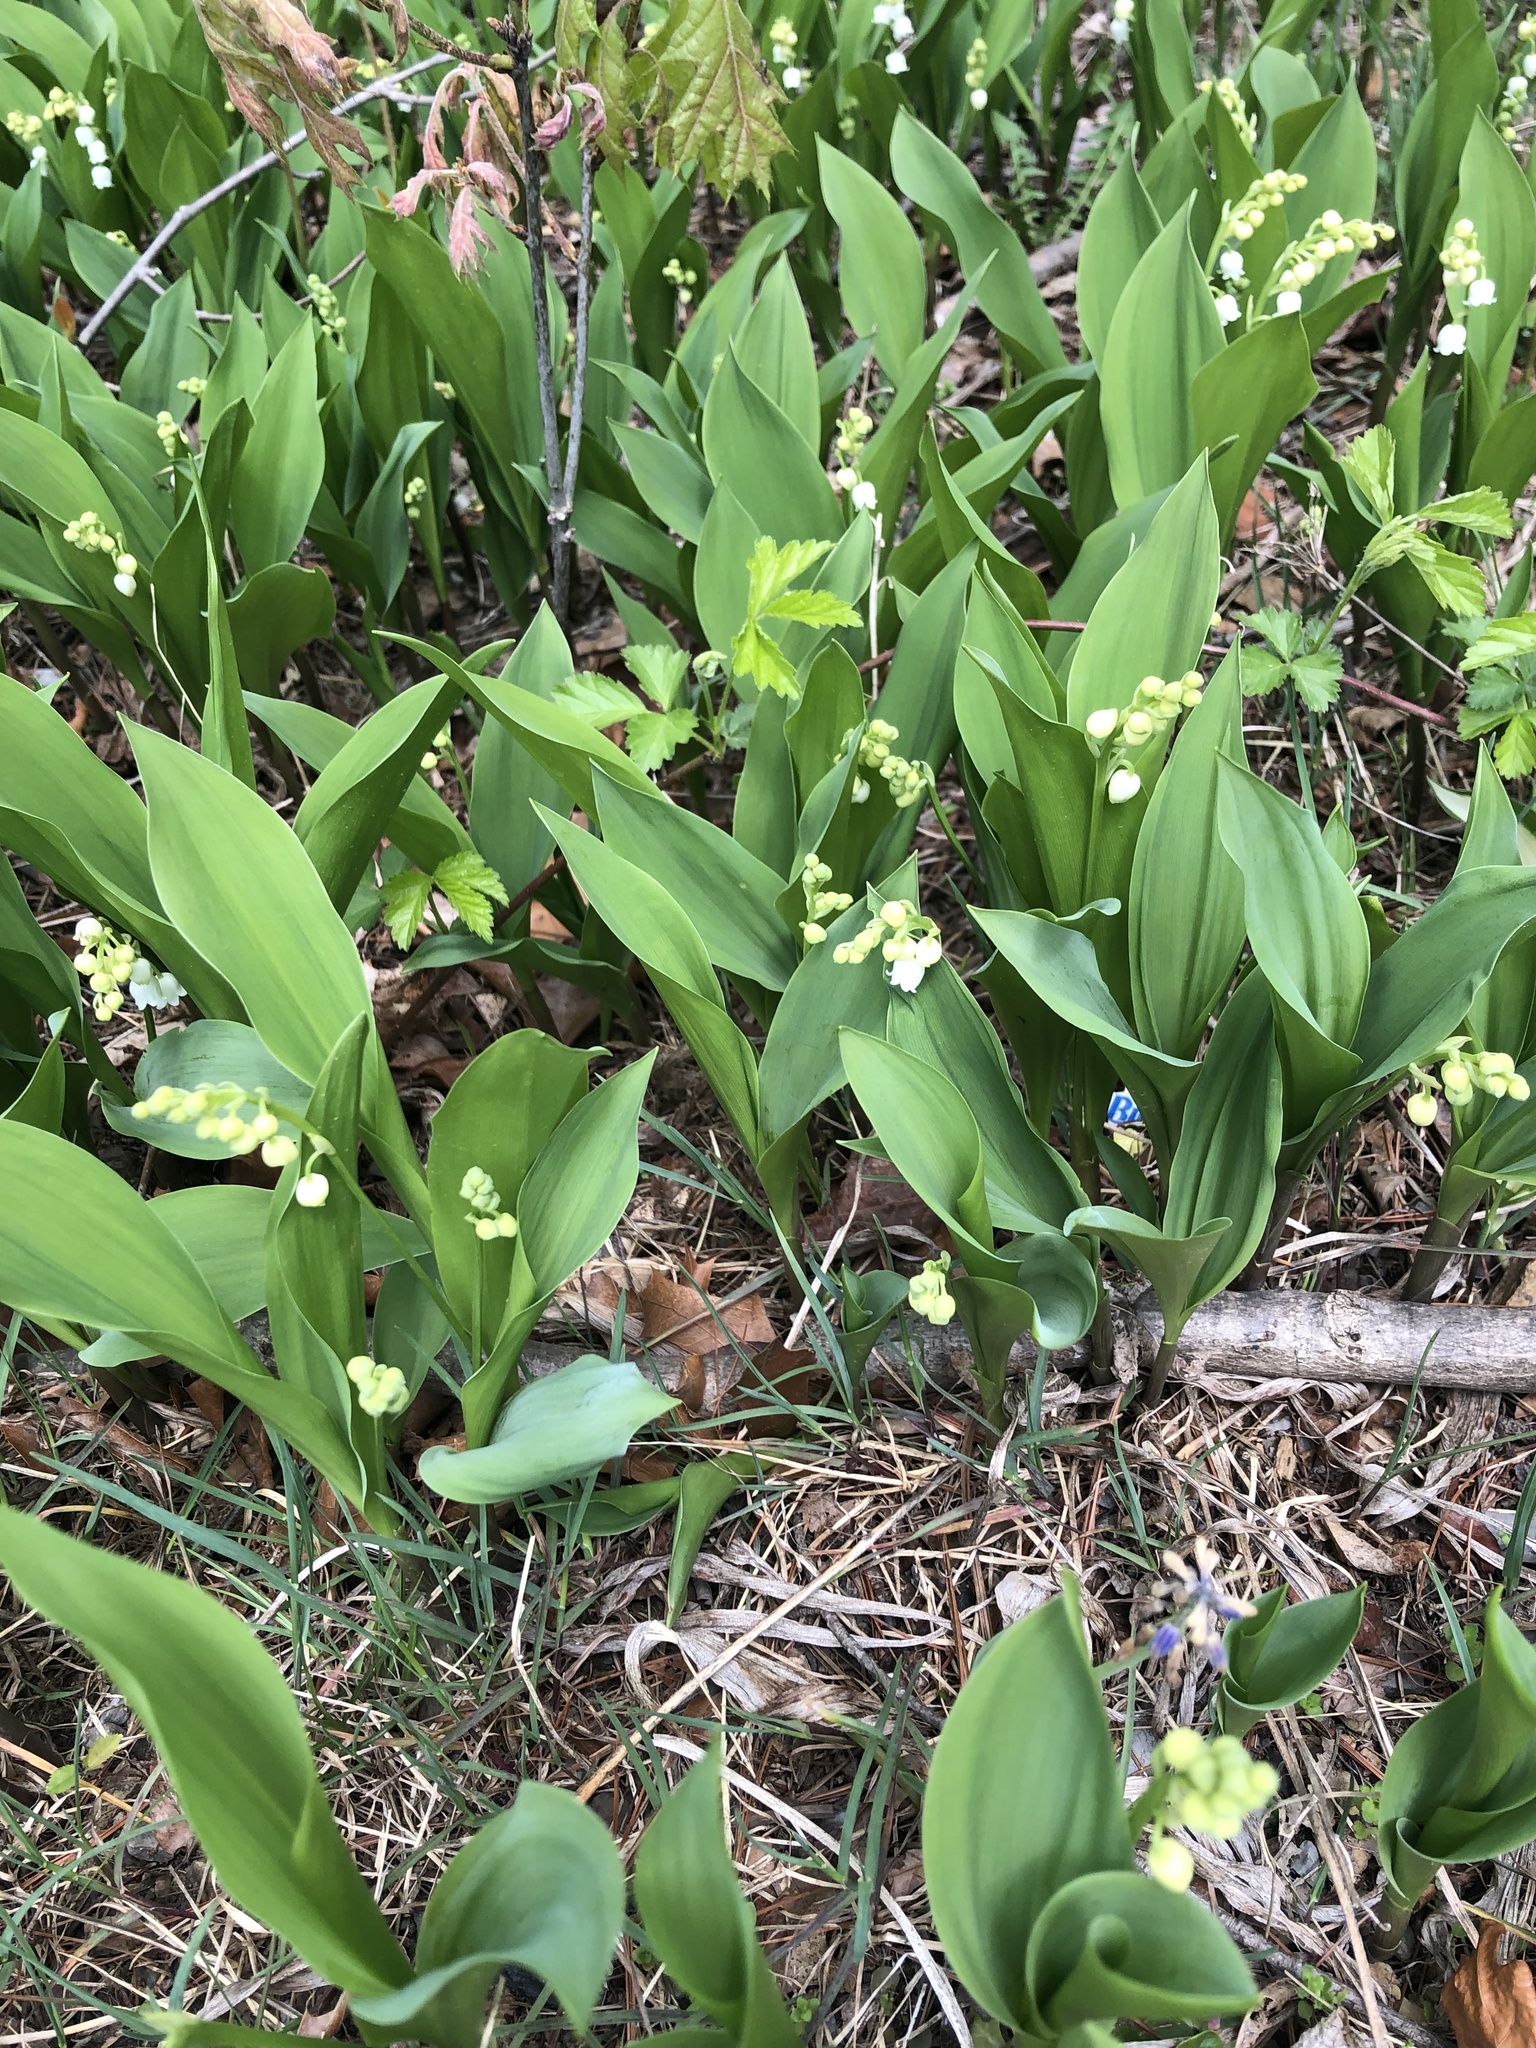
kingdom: Plantae
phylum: Tracheophyta
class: Liliopsida
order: Asparagales
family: Asparagaceae
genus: Convallaria
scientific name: Convallaria majalis
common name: Lily-of-the-valley
